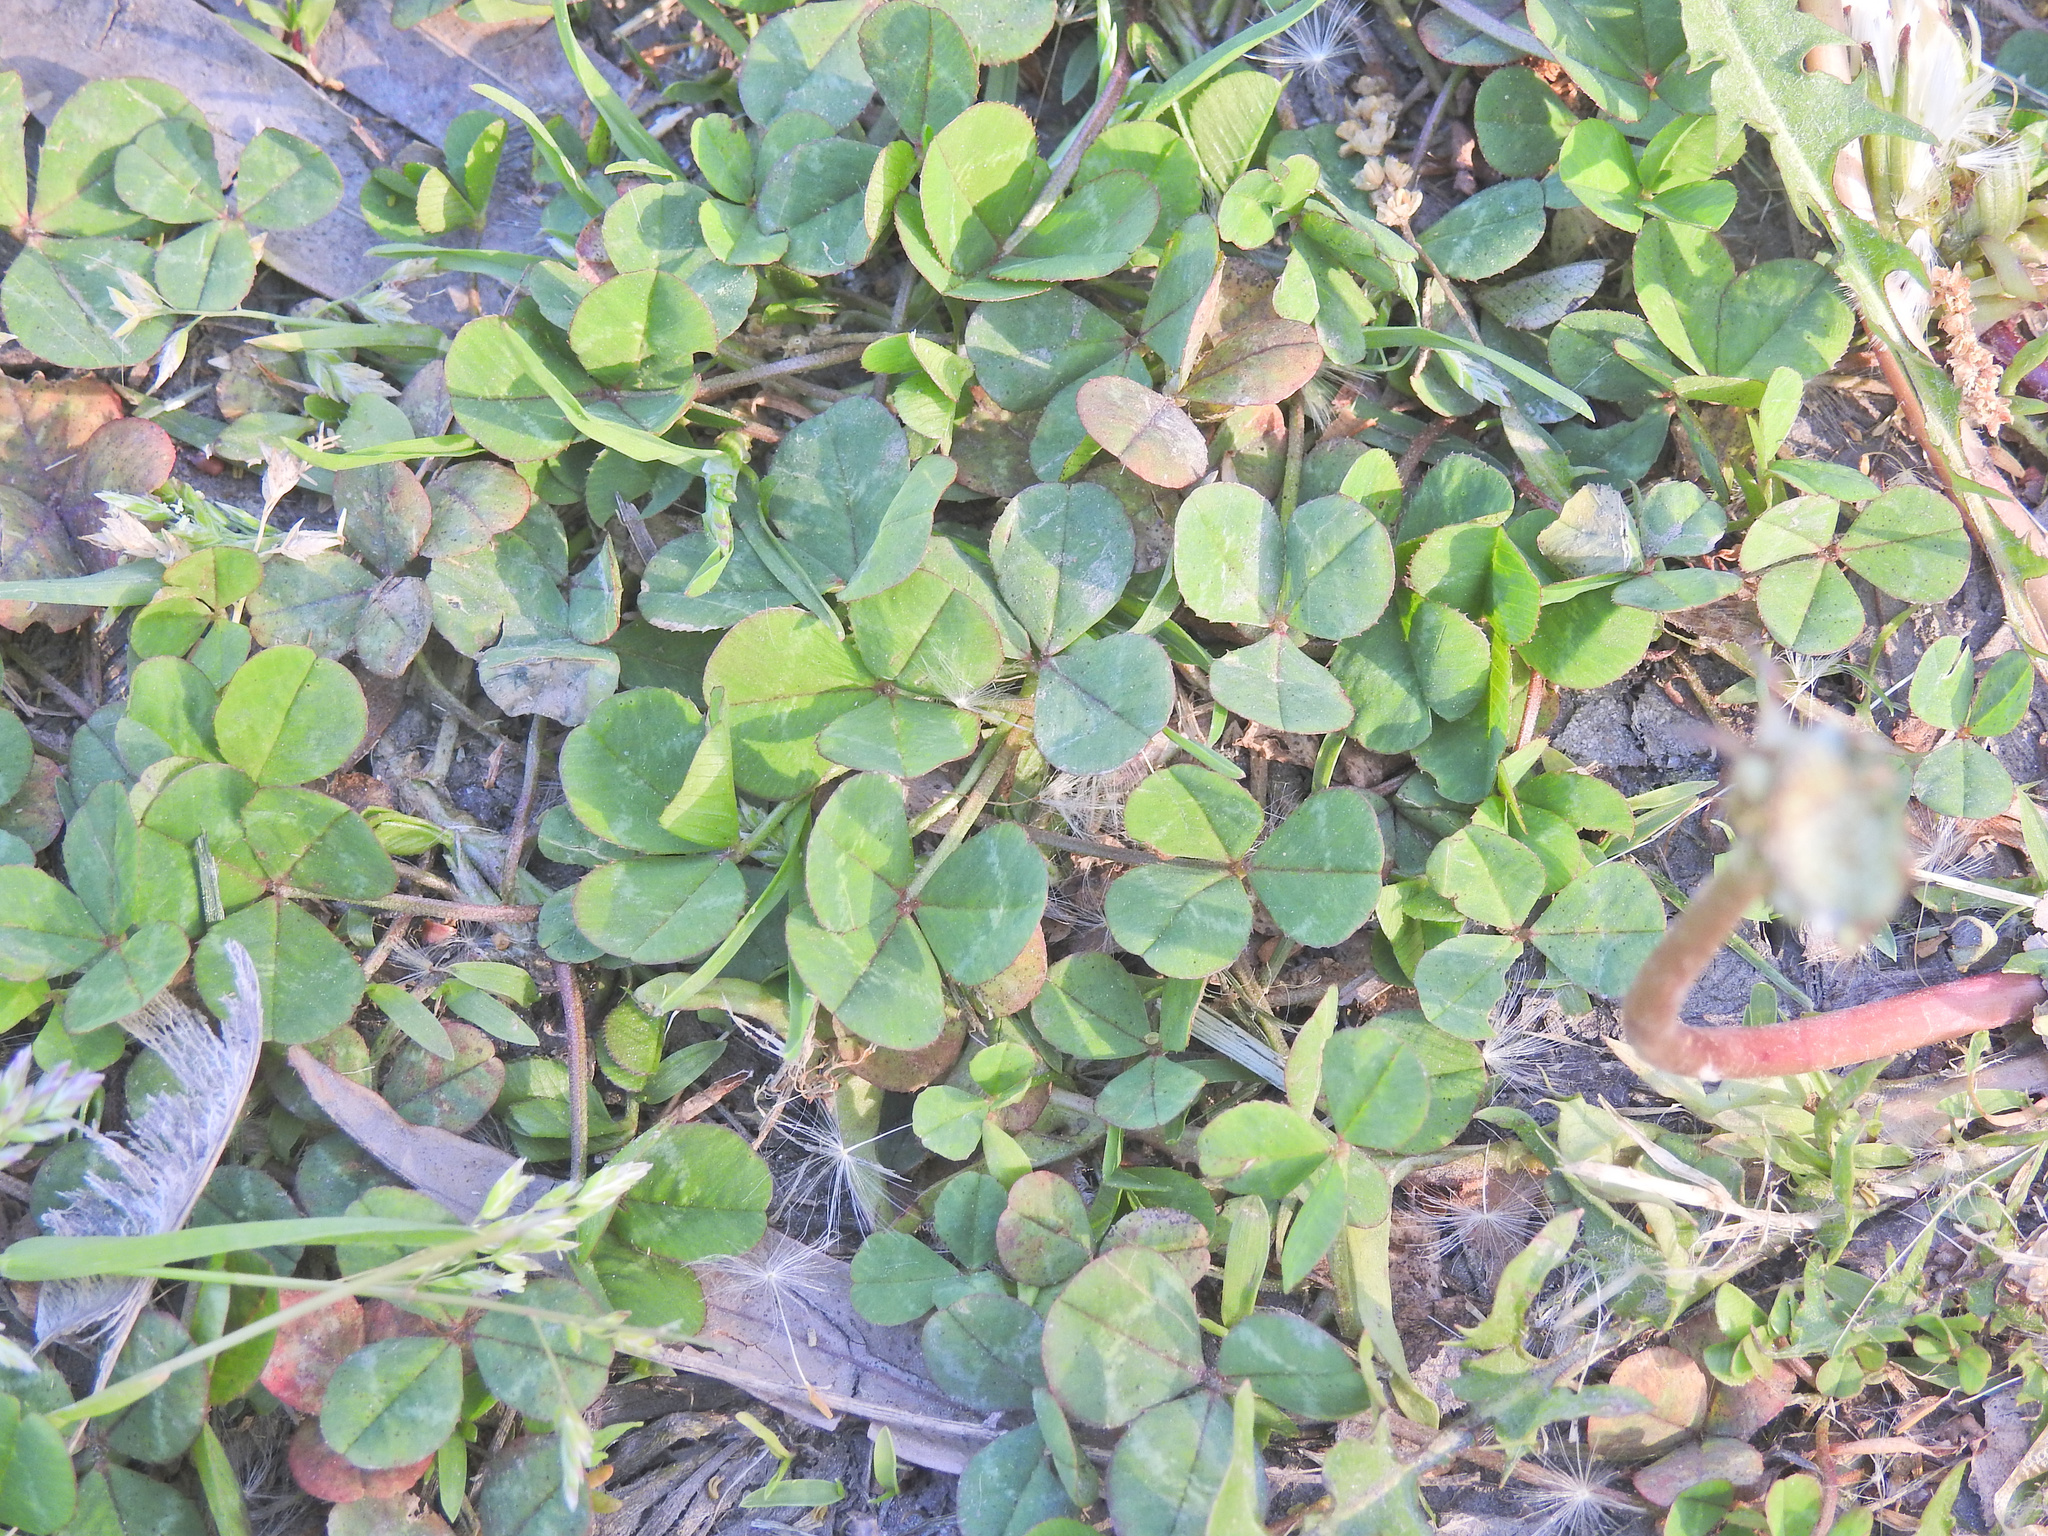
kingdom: Plantae
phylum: Tracheophyta
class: Magnoliopsida
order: Fabales
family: Fabaceae
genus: Trifolium
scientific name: Trifolium repens
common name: White clover
